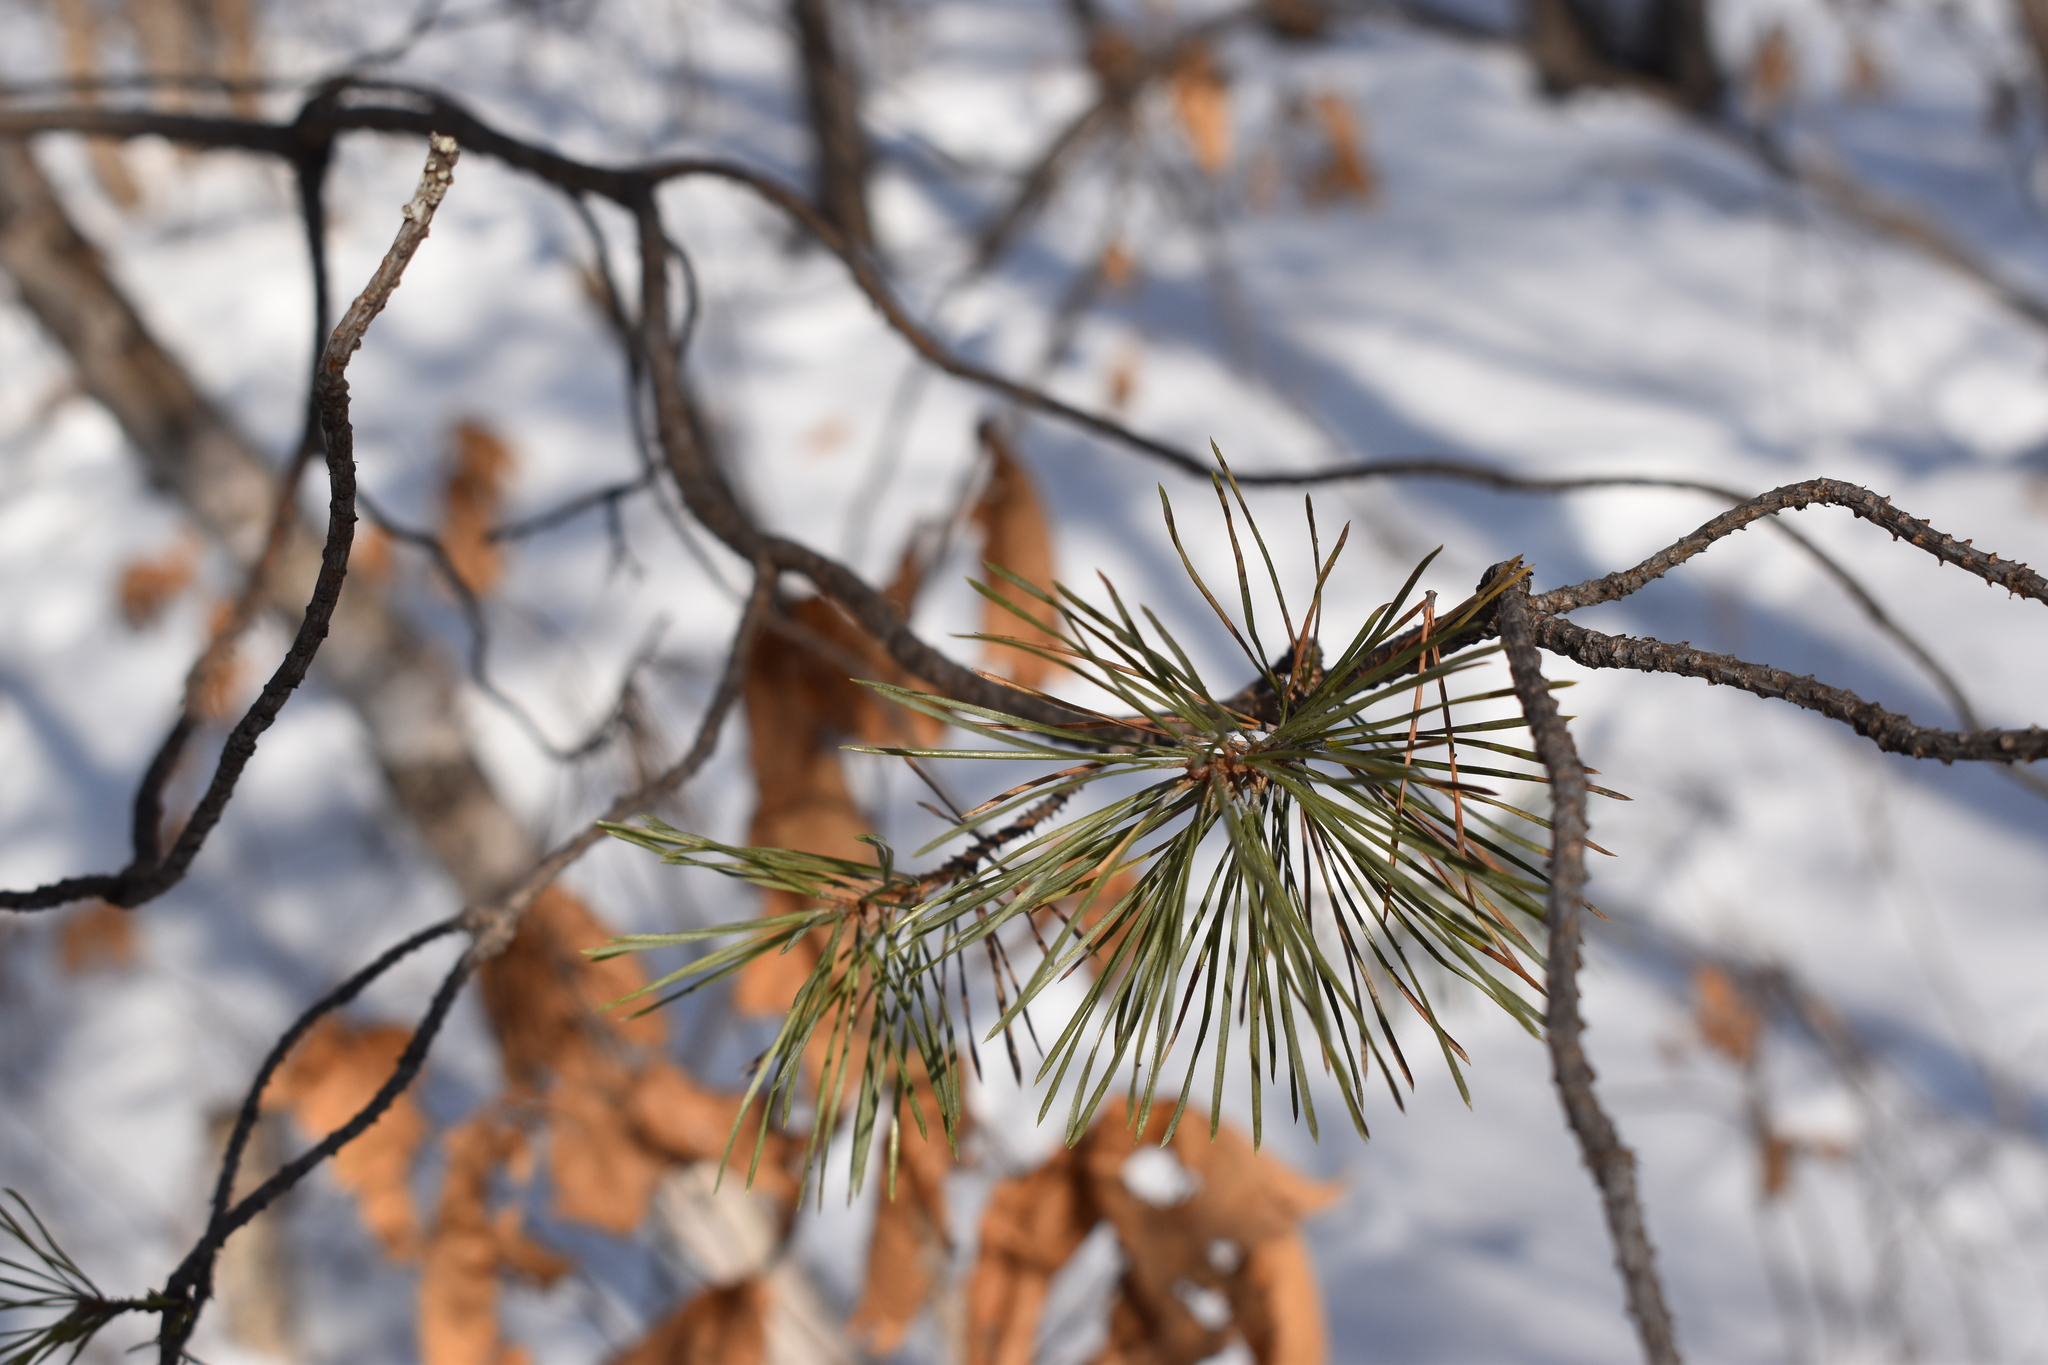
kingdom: Plantae
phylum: Tracheophyta
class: Pinopsida
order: Pinales
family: Pinaceae
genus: Pinus
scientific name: Pinus sylvestris
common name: Scots pine
